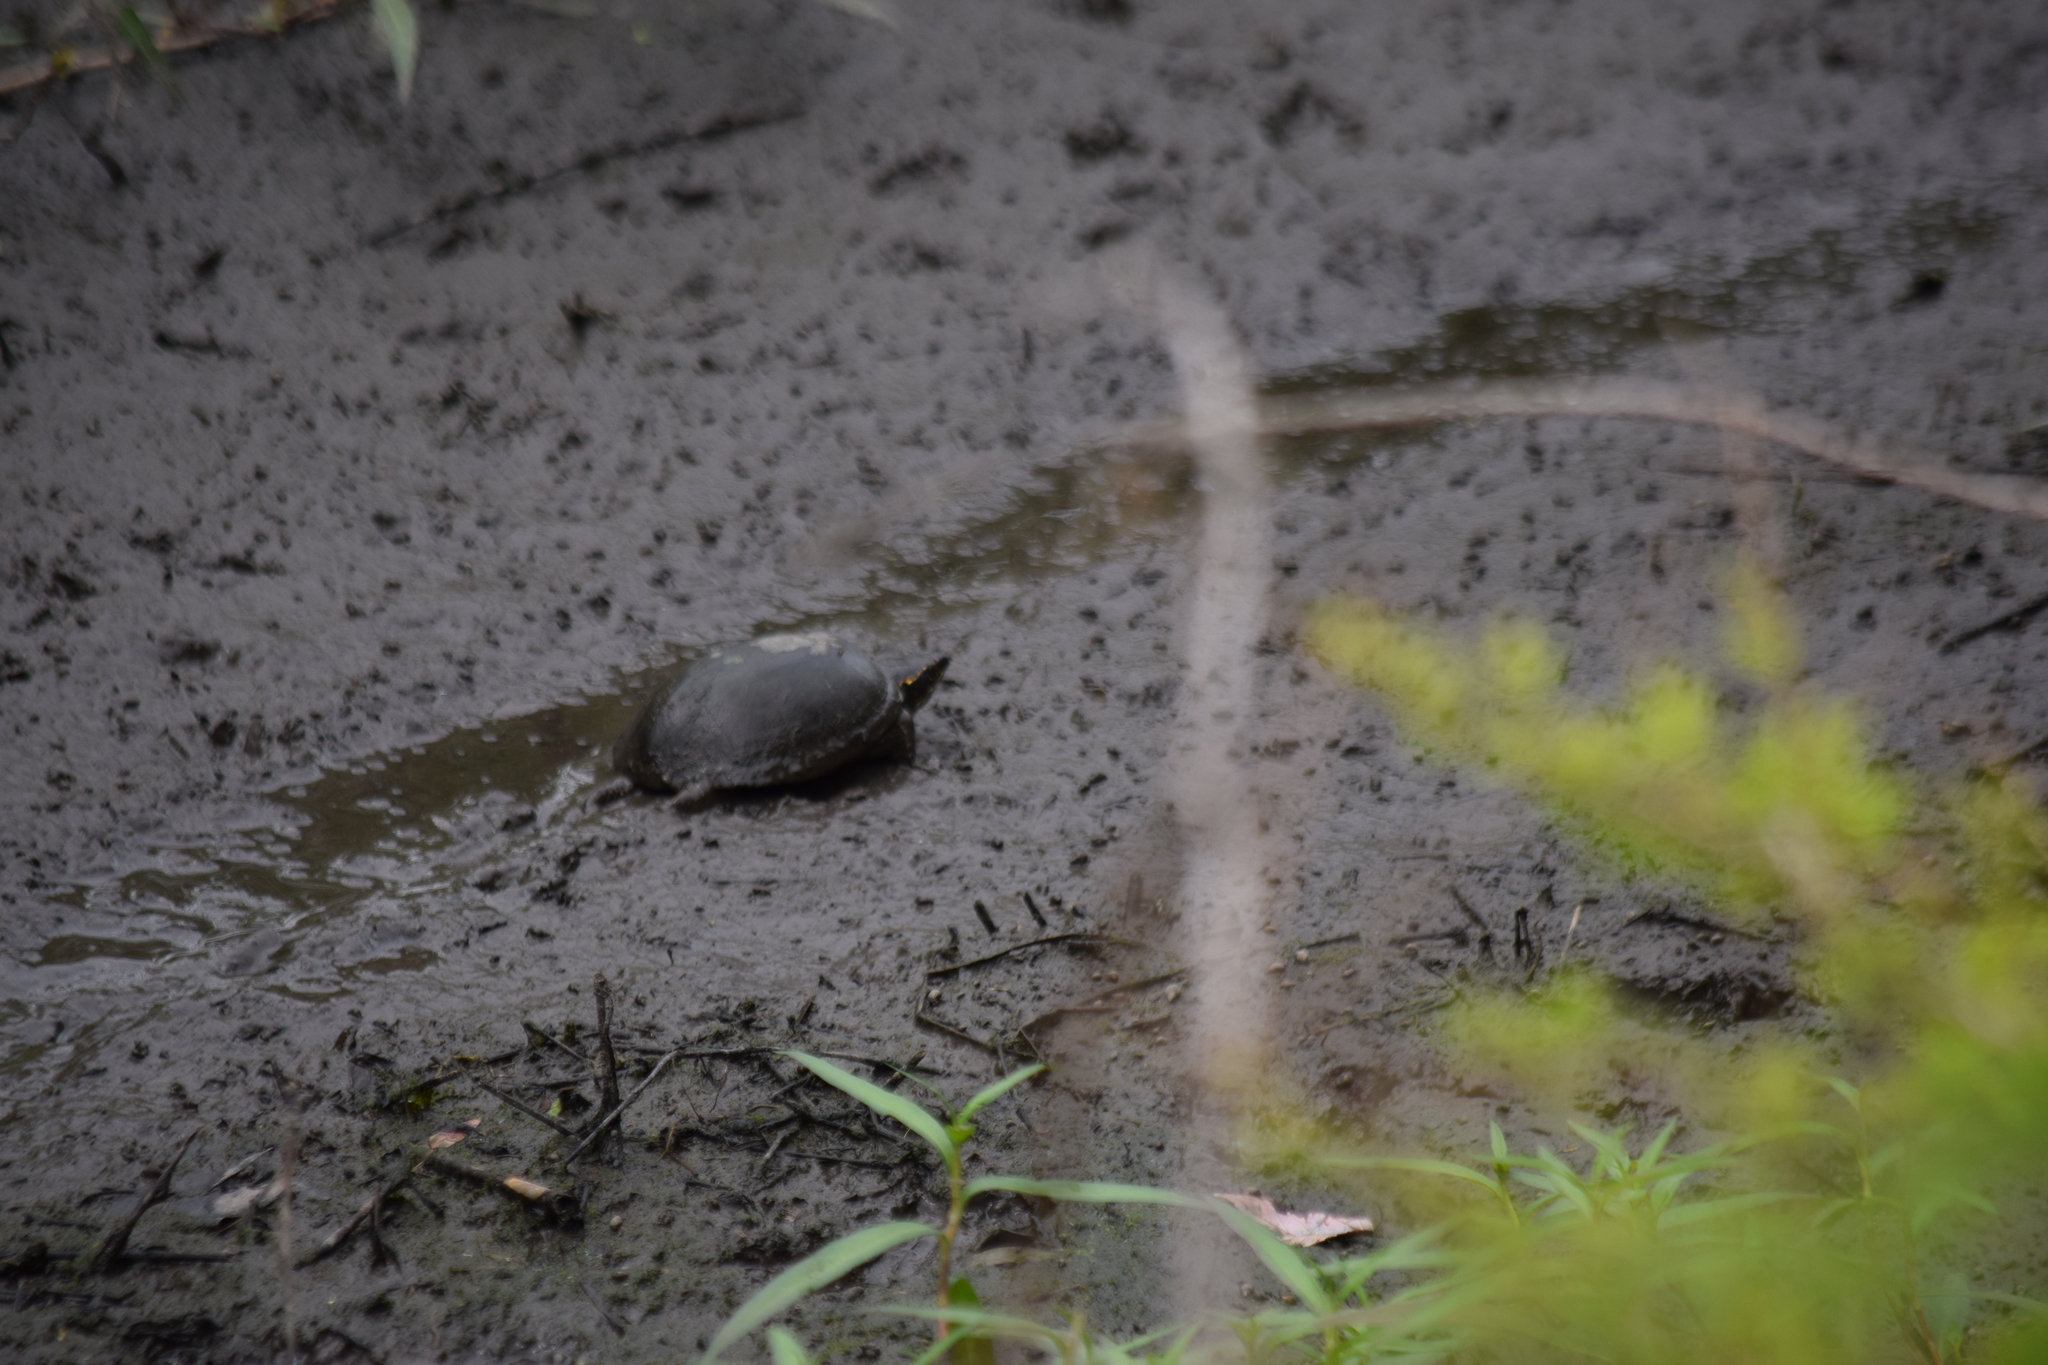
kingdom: Animalia
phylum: Chordata
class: Testudines
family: Kinosternidae
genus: Sternotherus
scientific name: Sternotherus odoratus
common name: Common musk turtle
